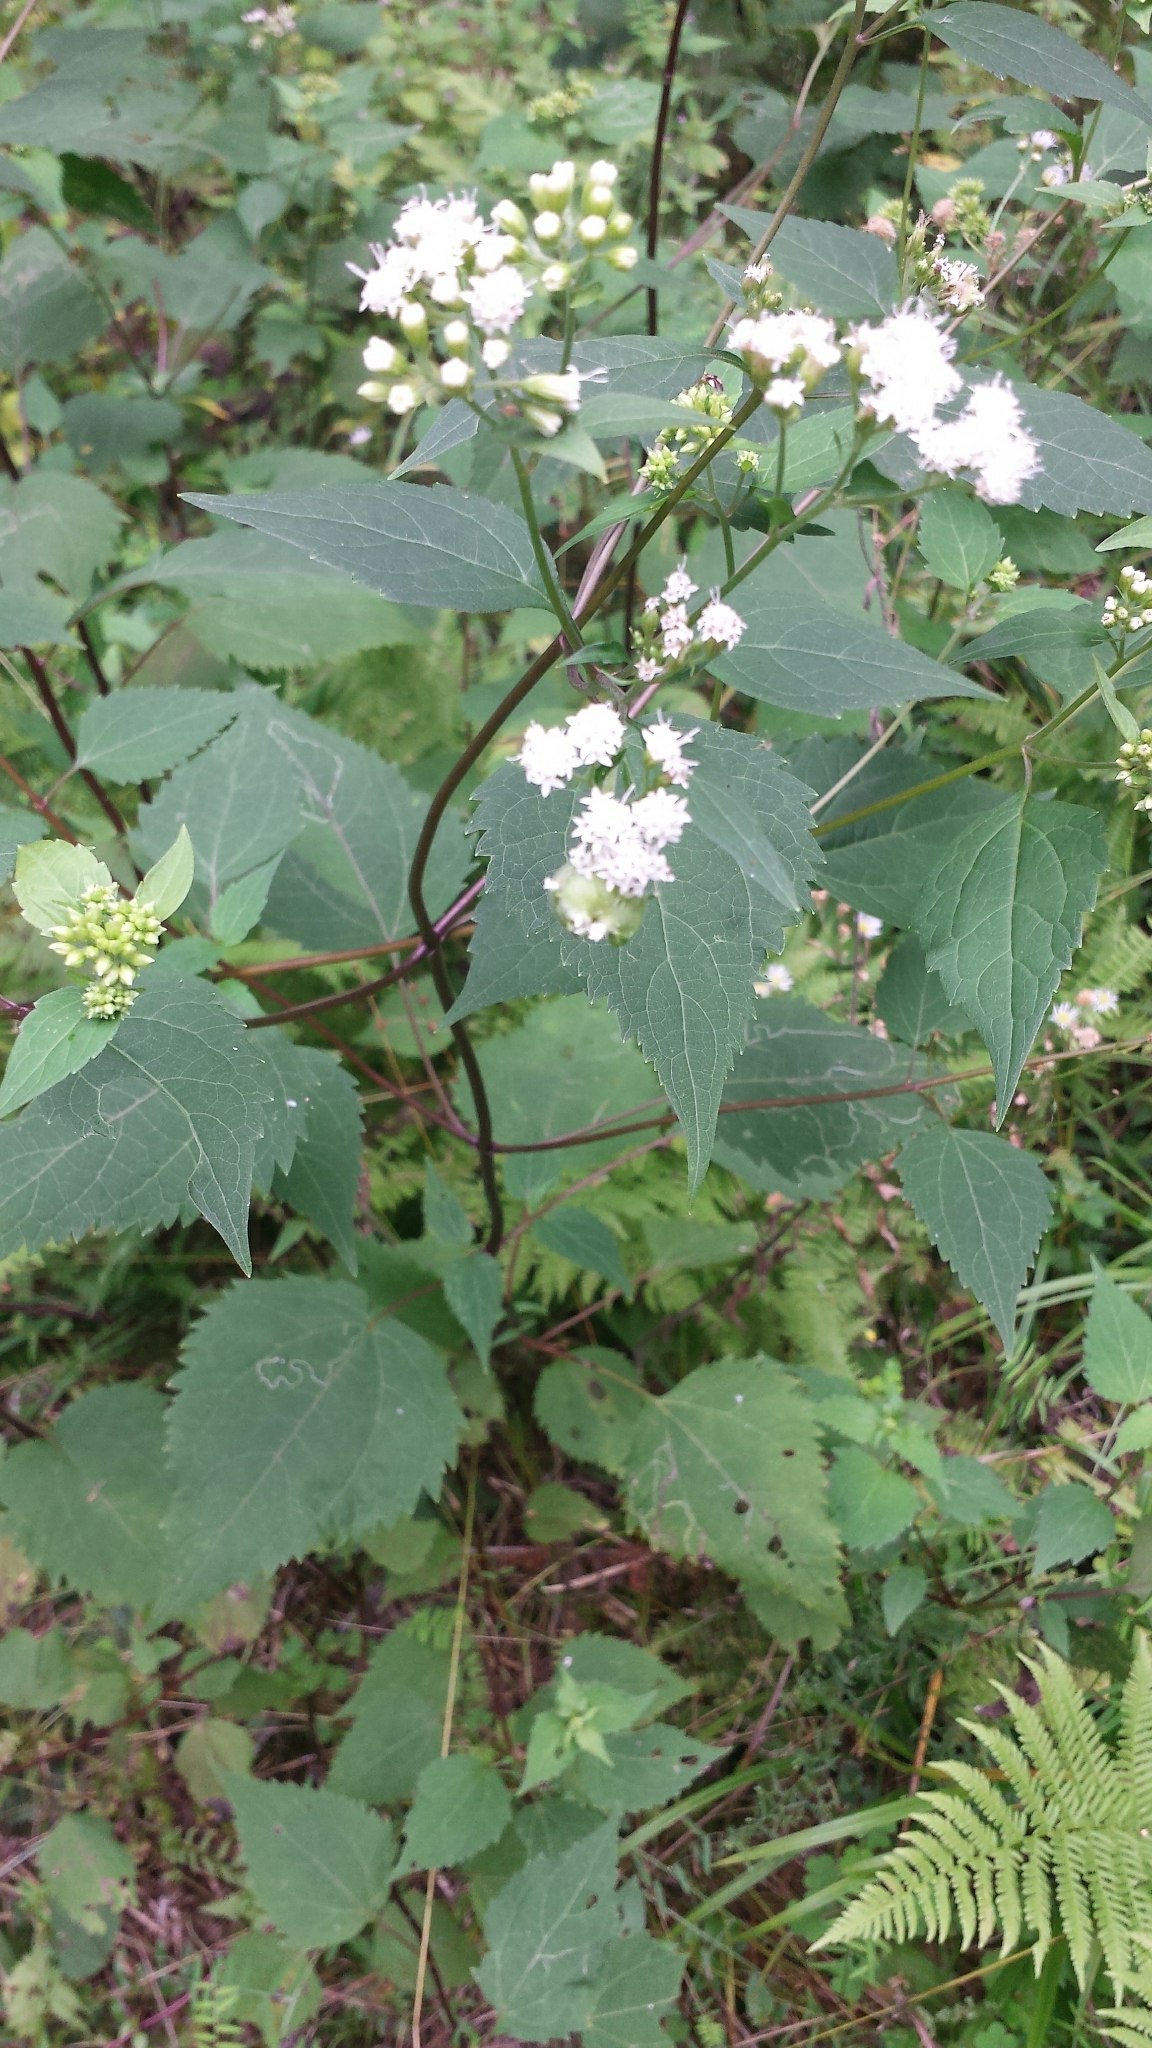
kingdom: Plantae
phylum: Tracheophyta
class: Magnoliopsida
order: Asterales
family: Asteraceae
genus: Ageratina
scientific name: Ageratina altissima
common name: White snakeroot
